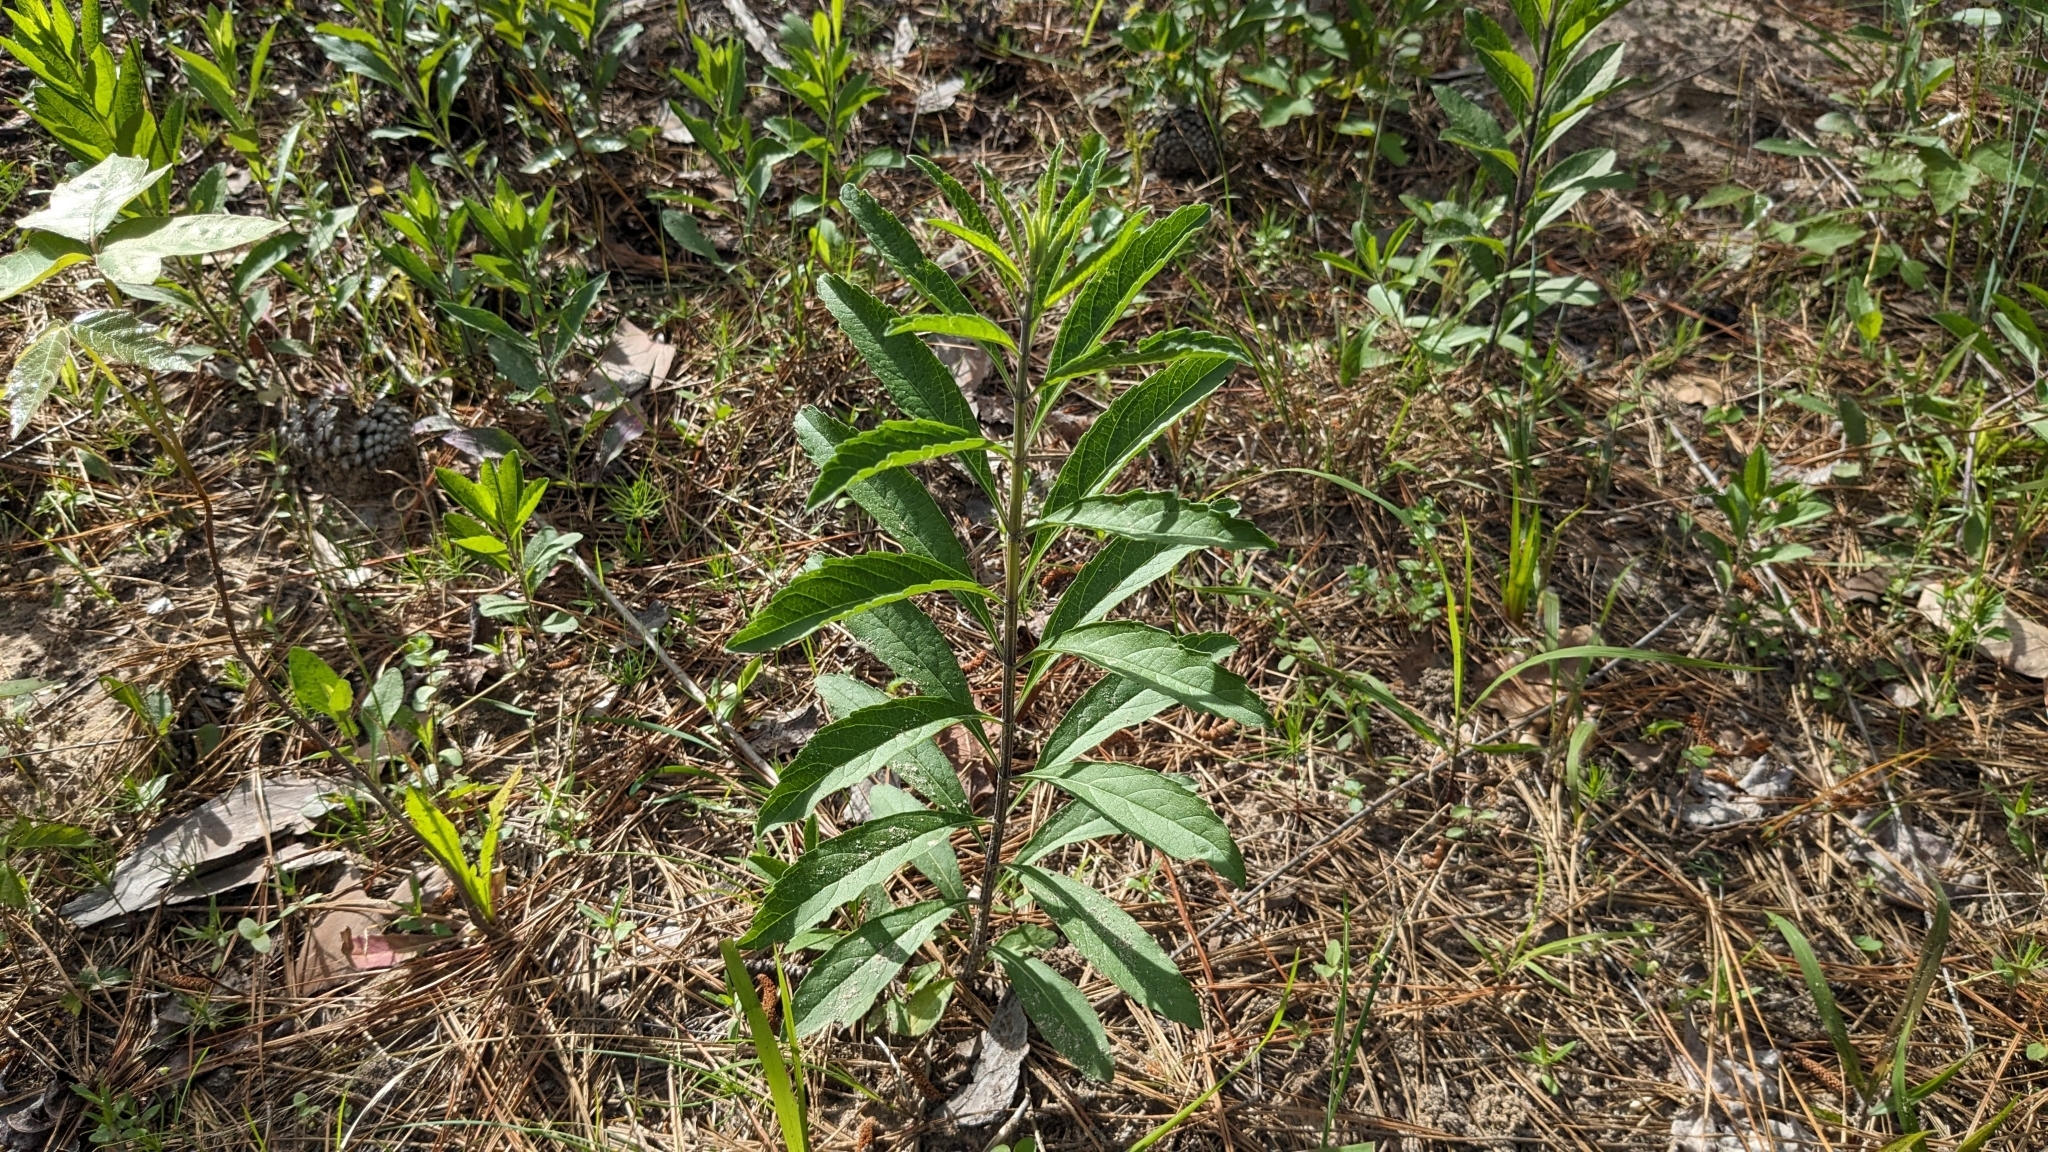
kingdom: Plantae
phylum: Tracheophyta
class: Magnoliopsida
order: Lamiales
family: Lamiaceae
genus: Salvia
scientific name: Salvia azurea
